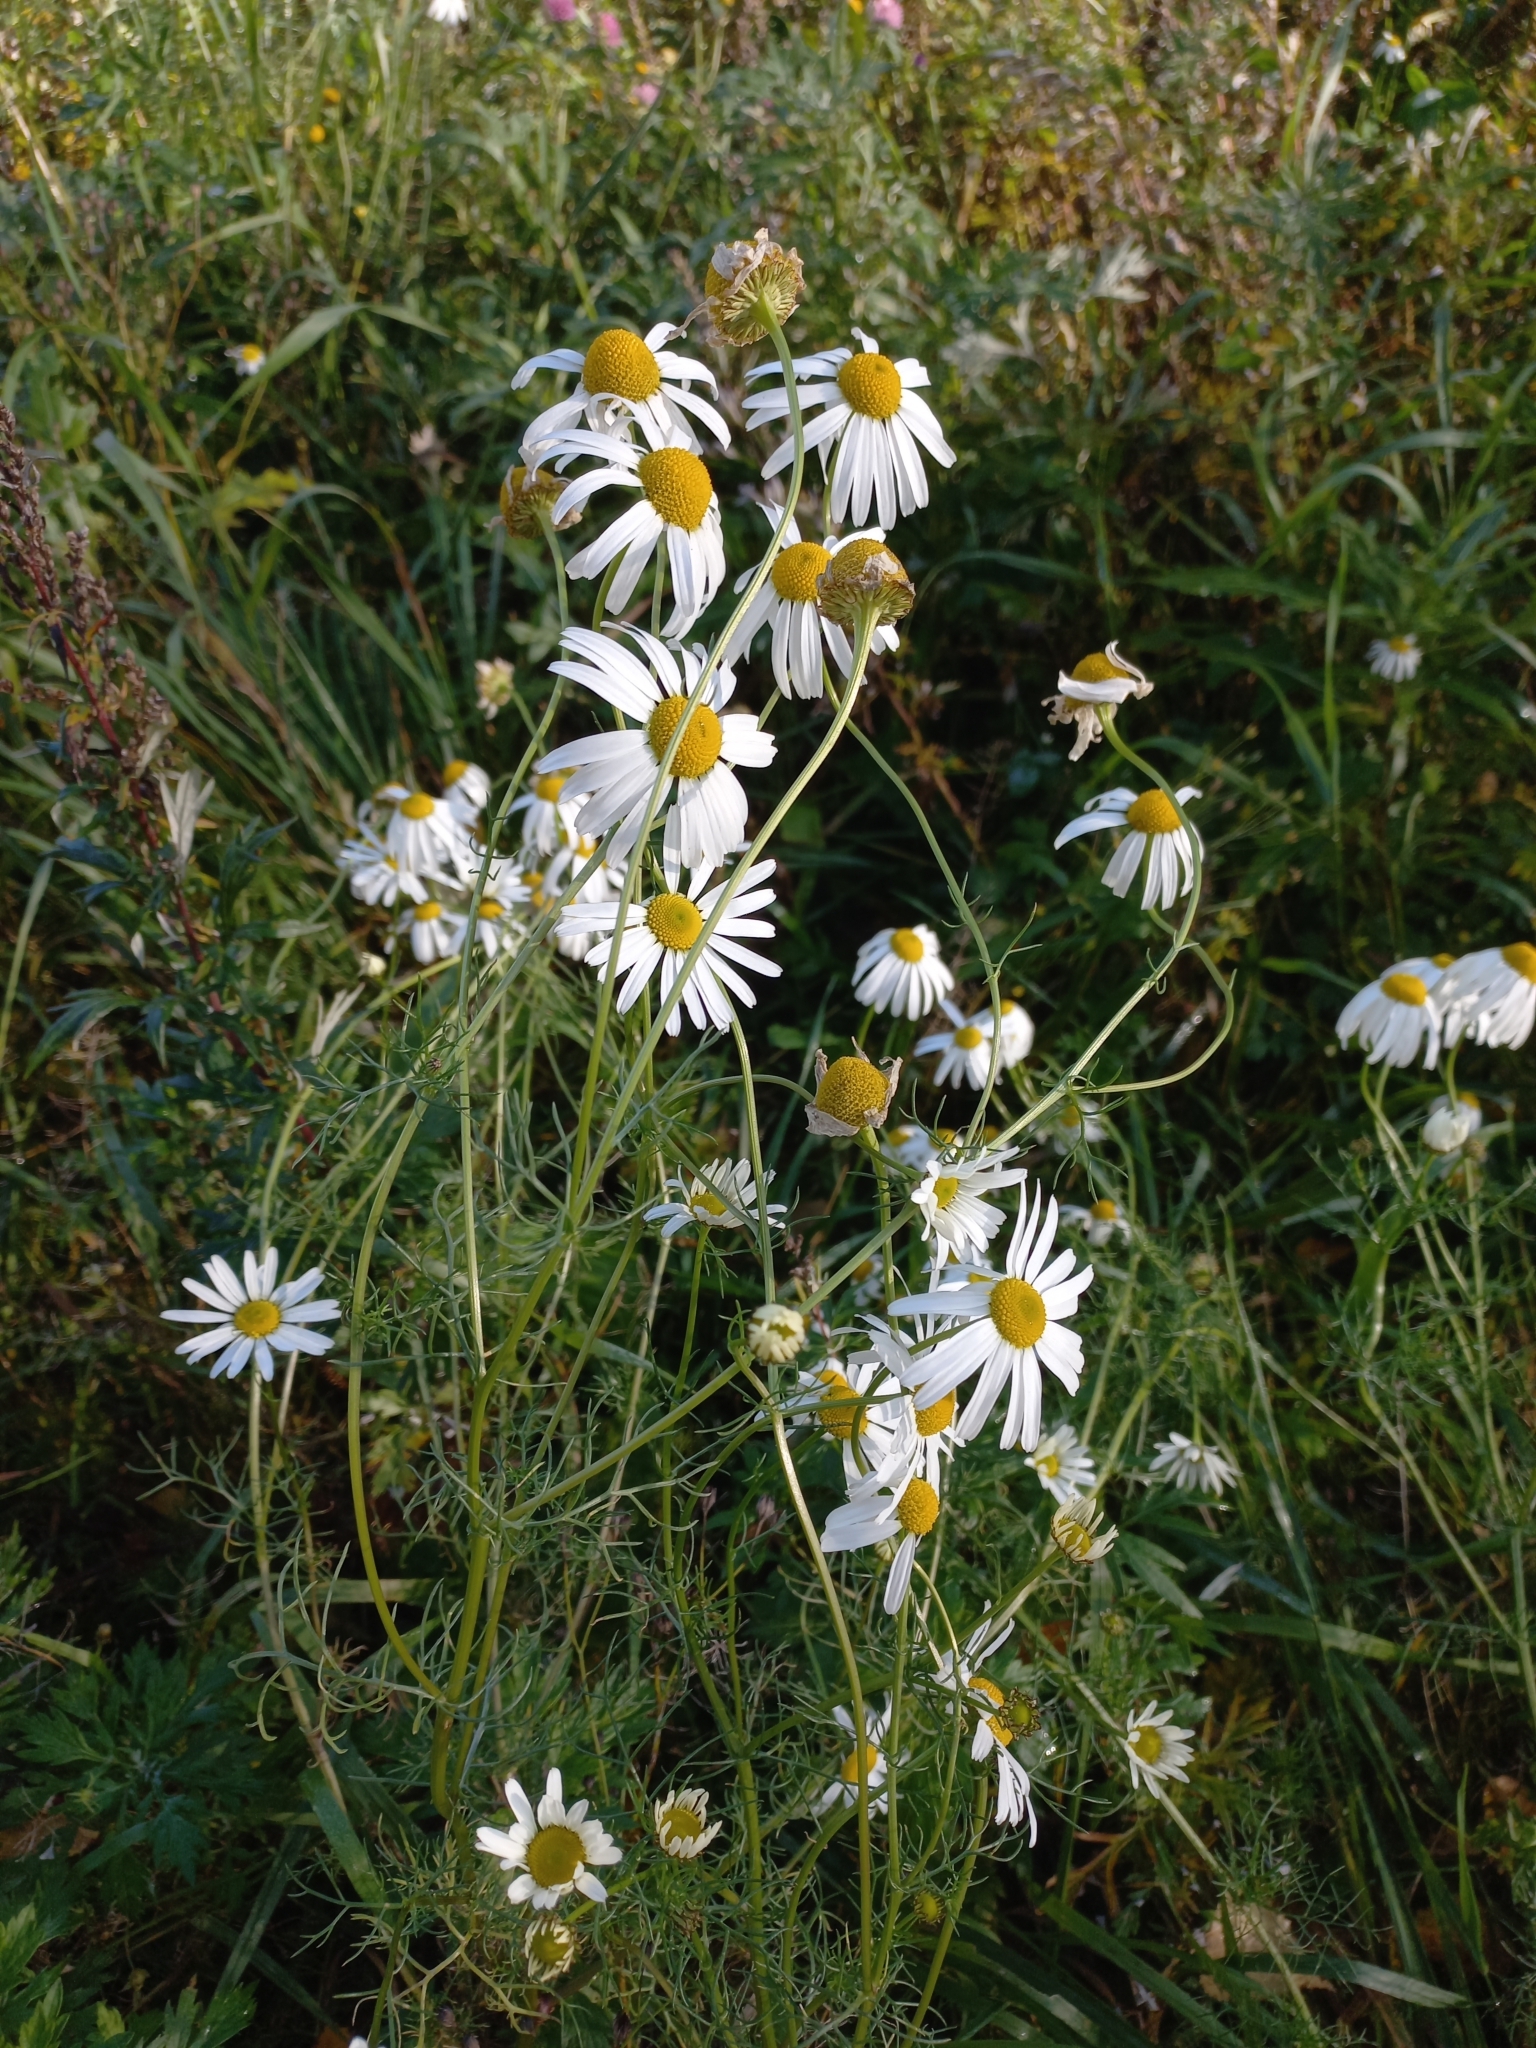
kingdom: Plantae
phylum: Tracheophyta
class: Magnoliopsida
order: Asterales
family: Asteraceae
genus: Tripleurospermum
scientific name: Tripleurospermum inodorum
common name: Scentless mayweed
